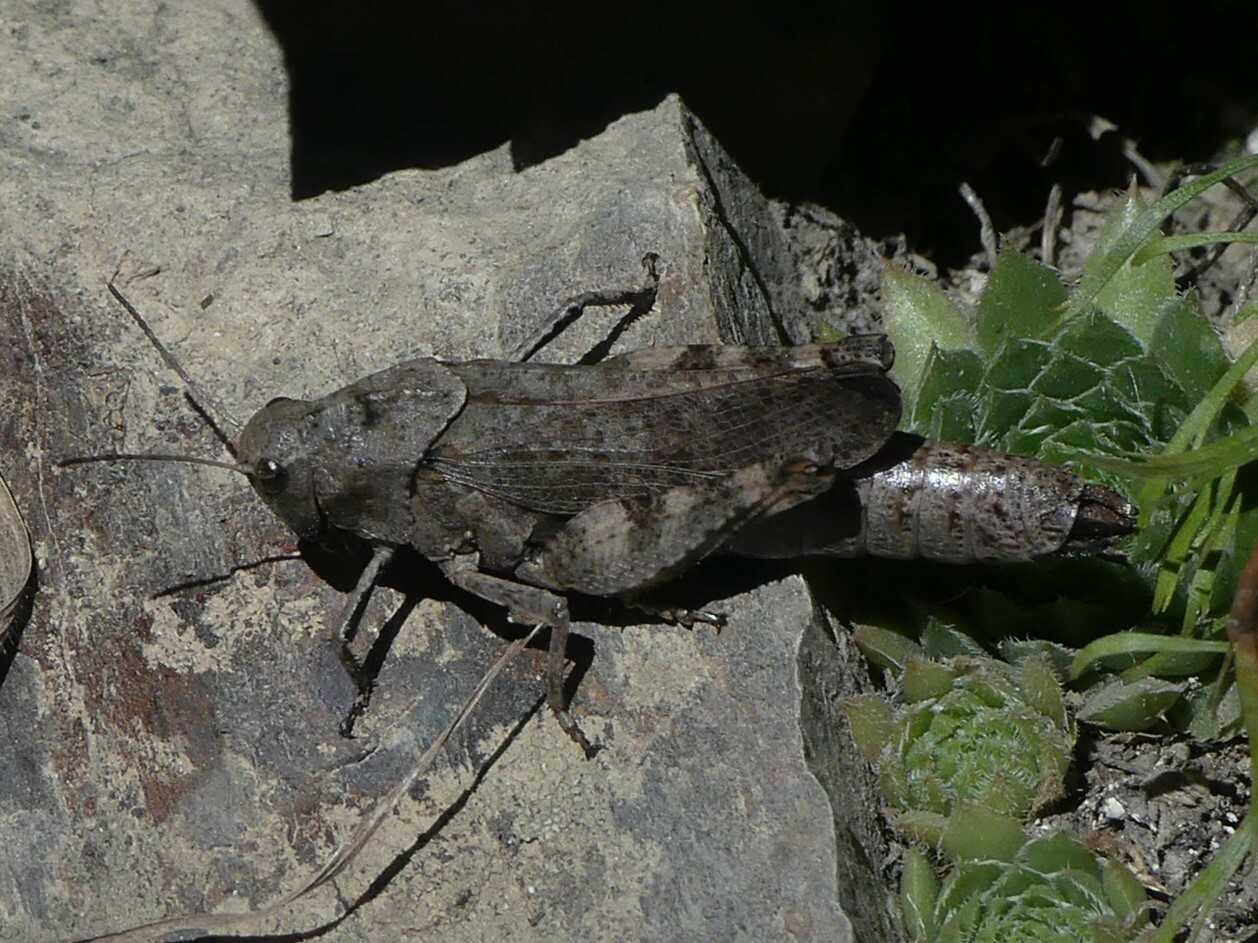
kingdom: Animalia
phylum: Arthropoda
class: Insecta
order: Orthoptera
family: Acrididae
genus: Psophus
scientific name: Psophus stridulus
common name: Rattle grasshopper
